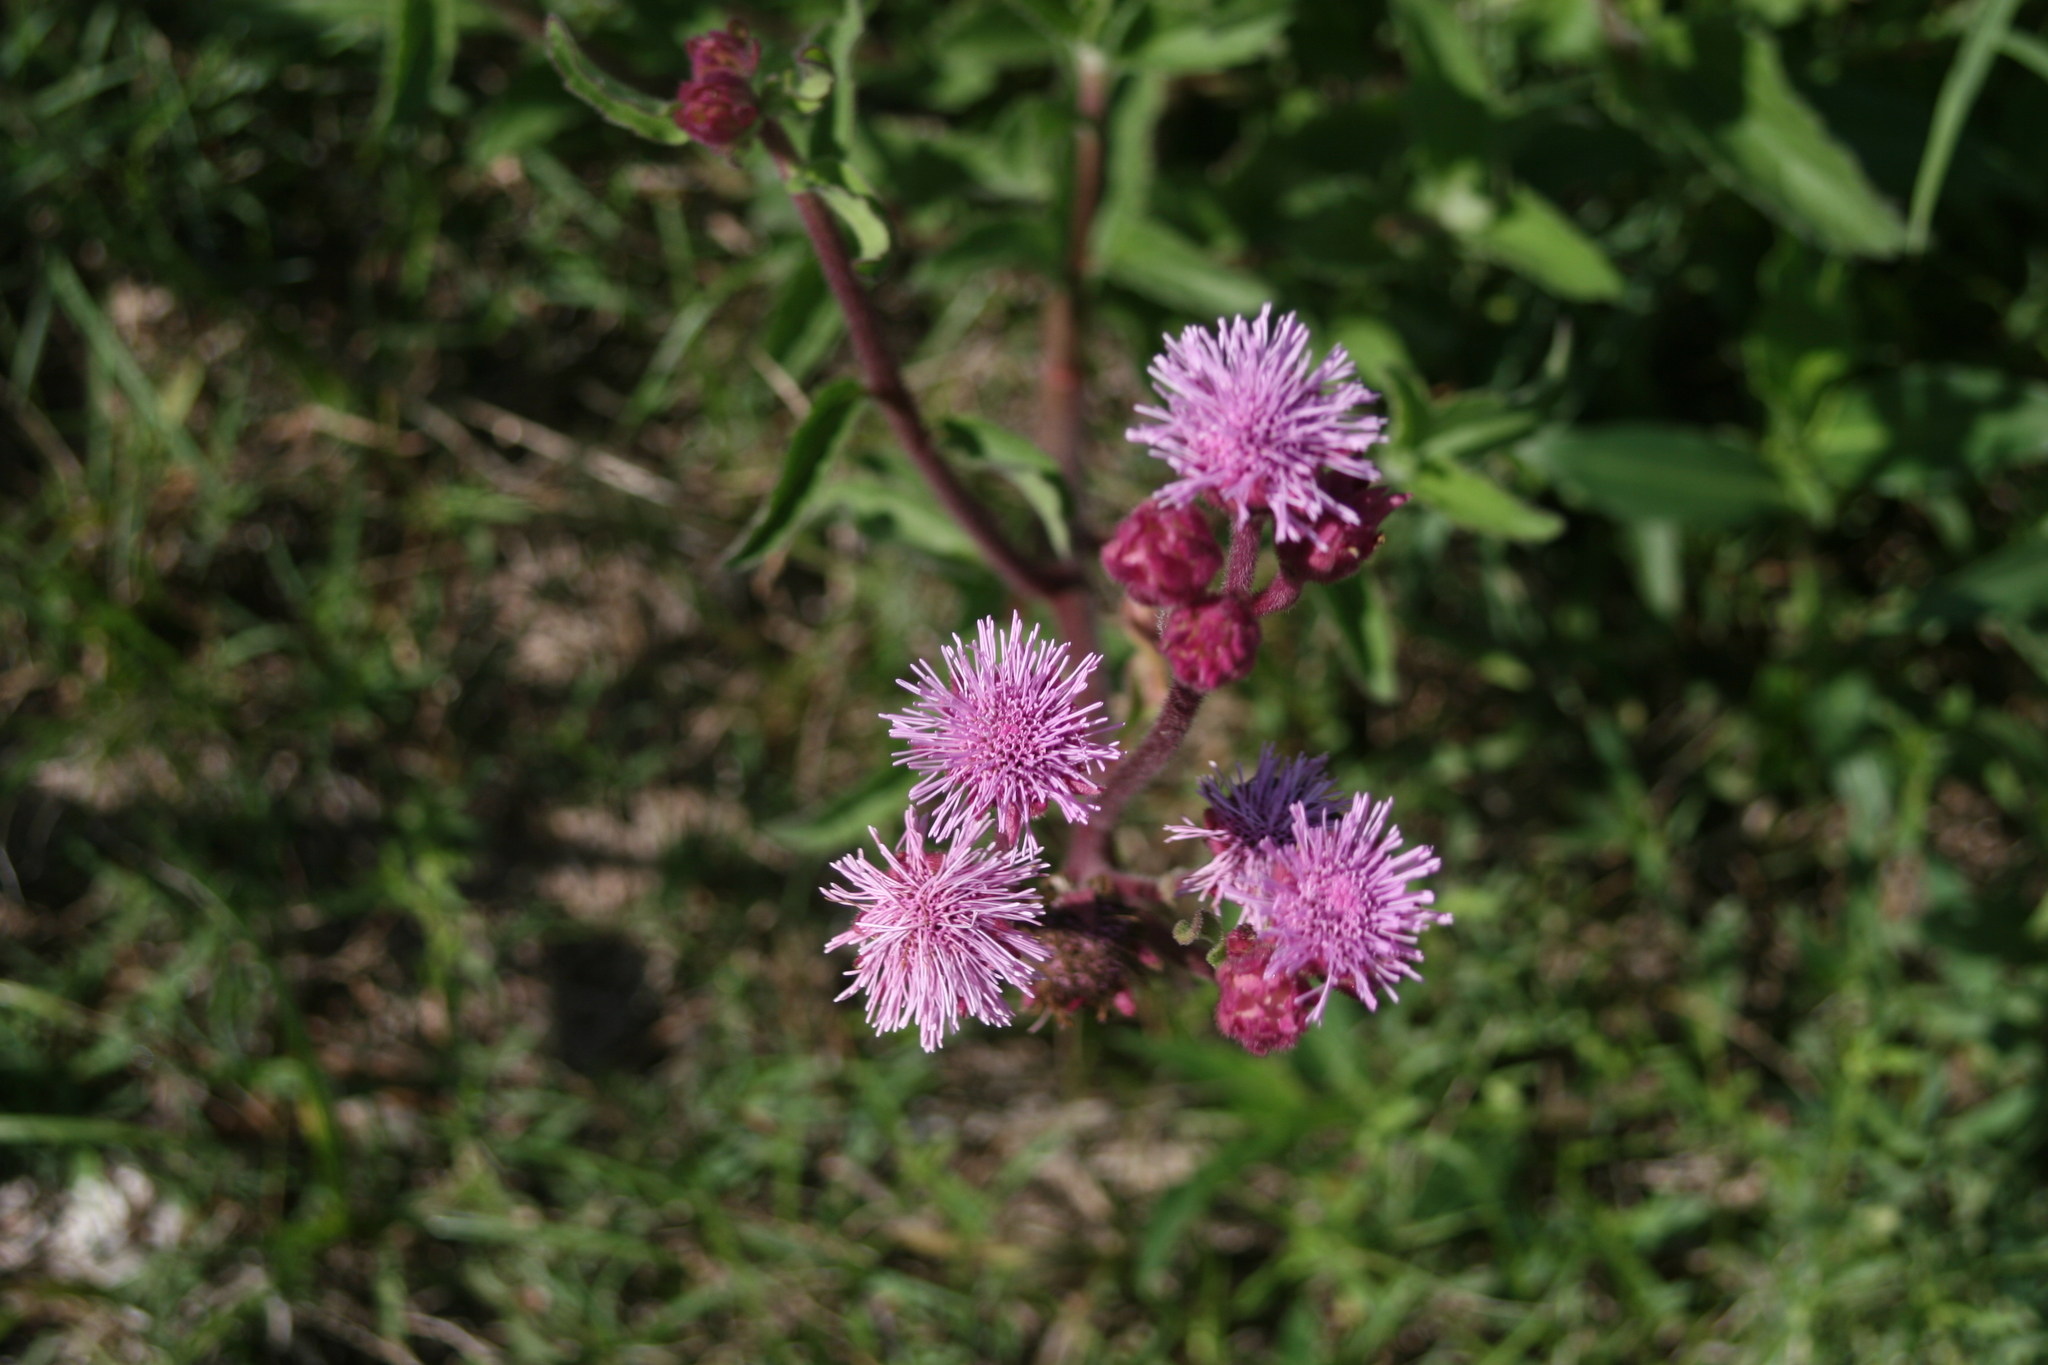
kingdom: Plantae
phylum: Tracheophyta
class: Magnoliopsida
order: Asterales
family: Asteraceae
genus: Campuloclinium
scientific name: Campuloclinium macrocephalum
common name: Pompomweed
